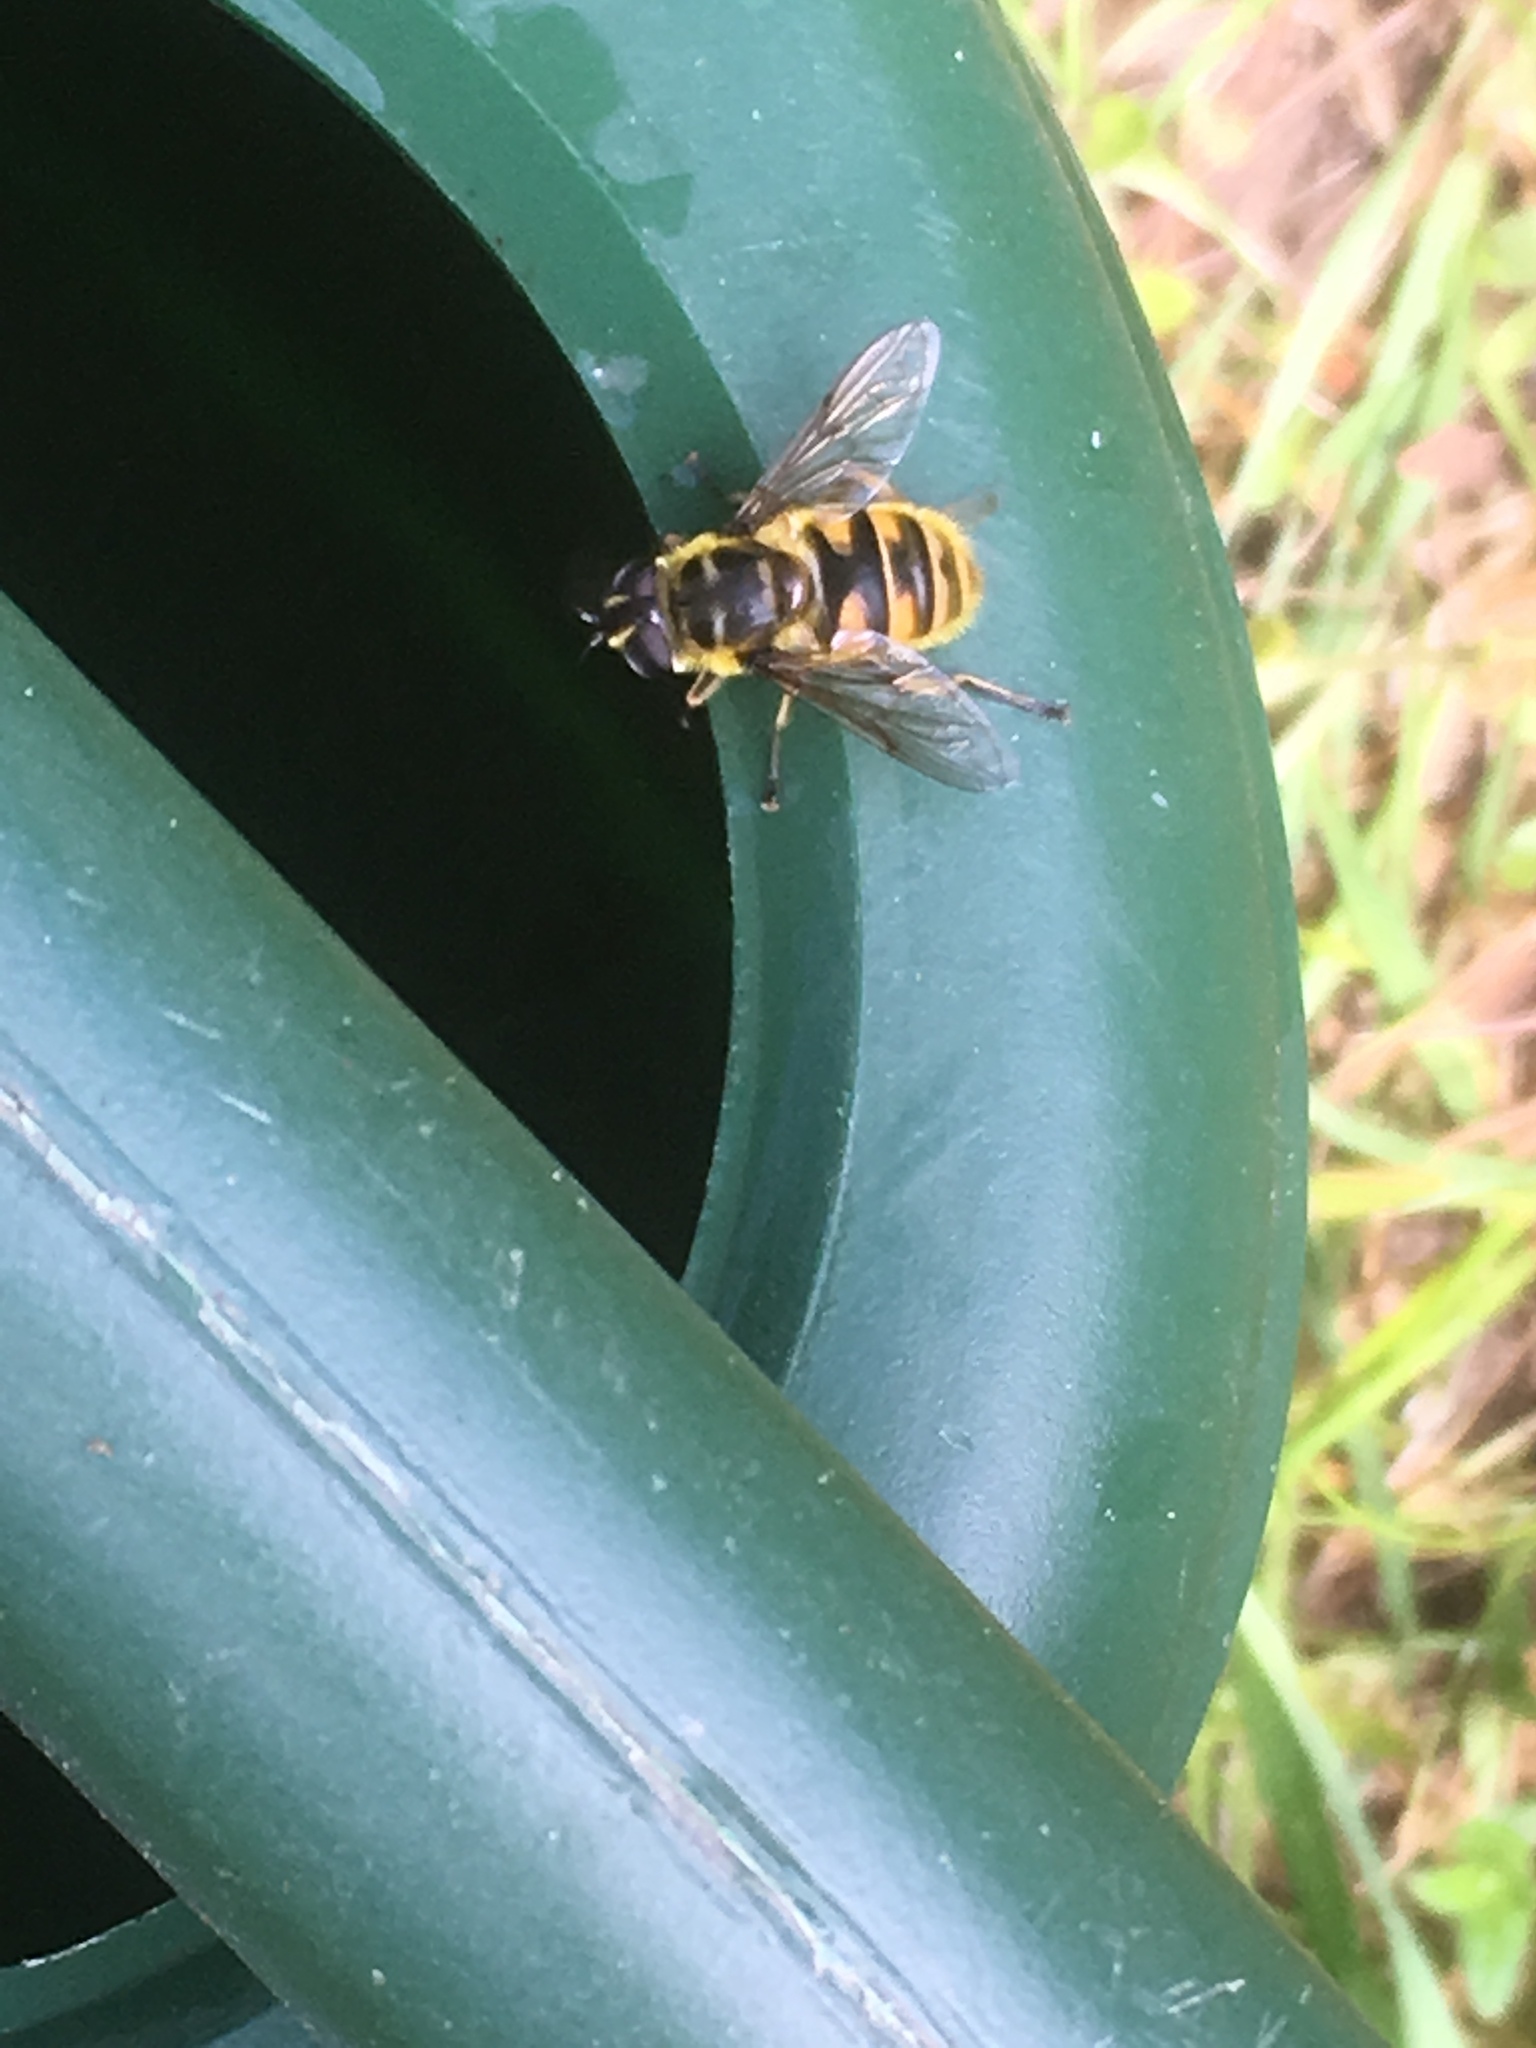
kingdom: Animalia
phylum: Arthropoda
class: Insecta
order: Diptera
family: Syrphidae
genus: Myathropa
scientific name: Myathropa florea
